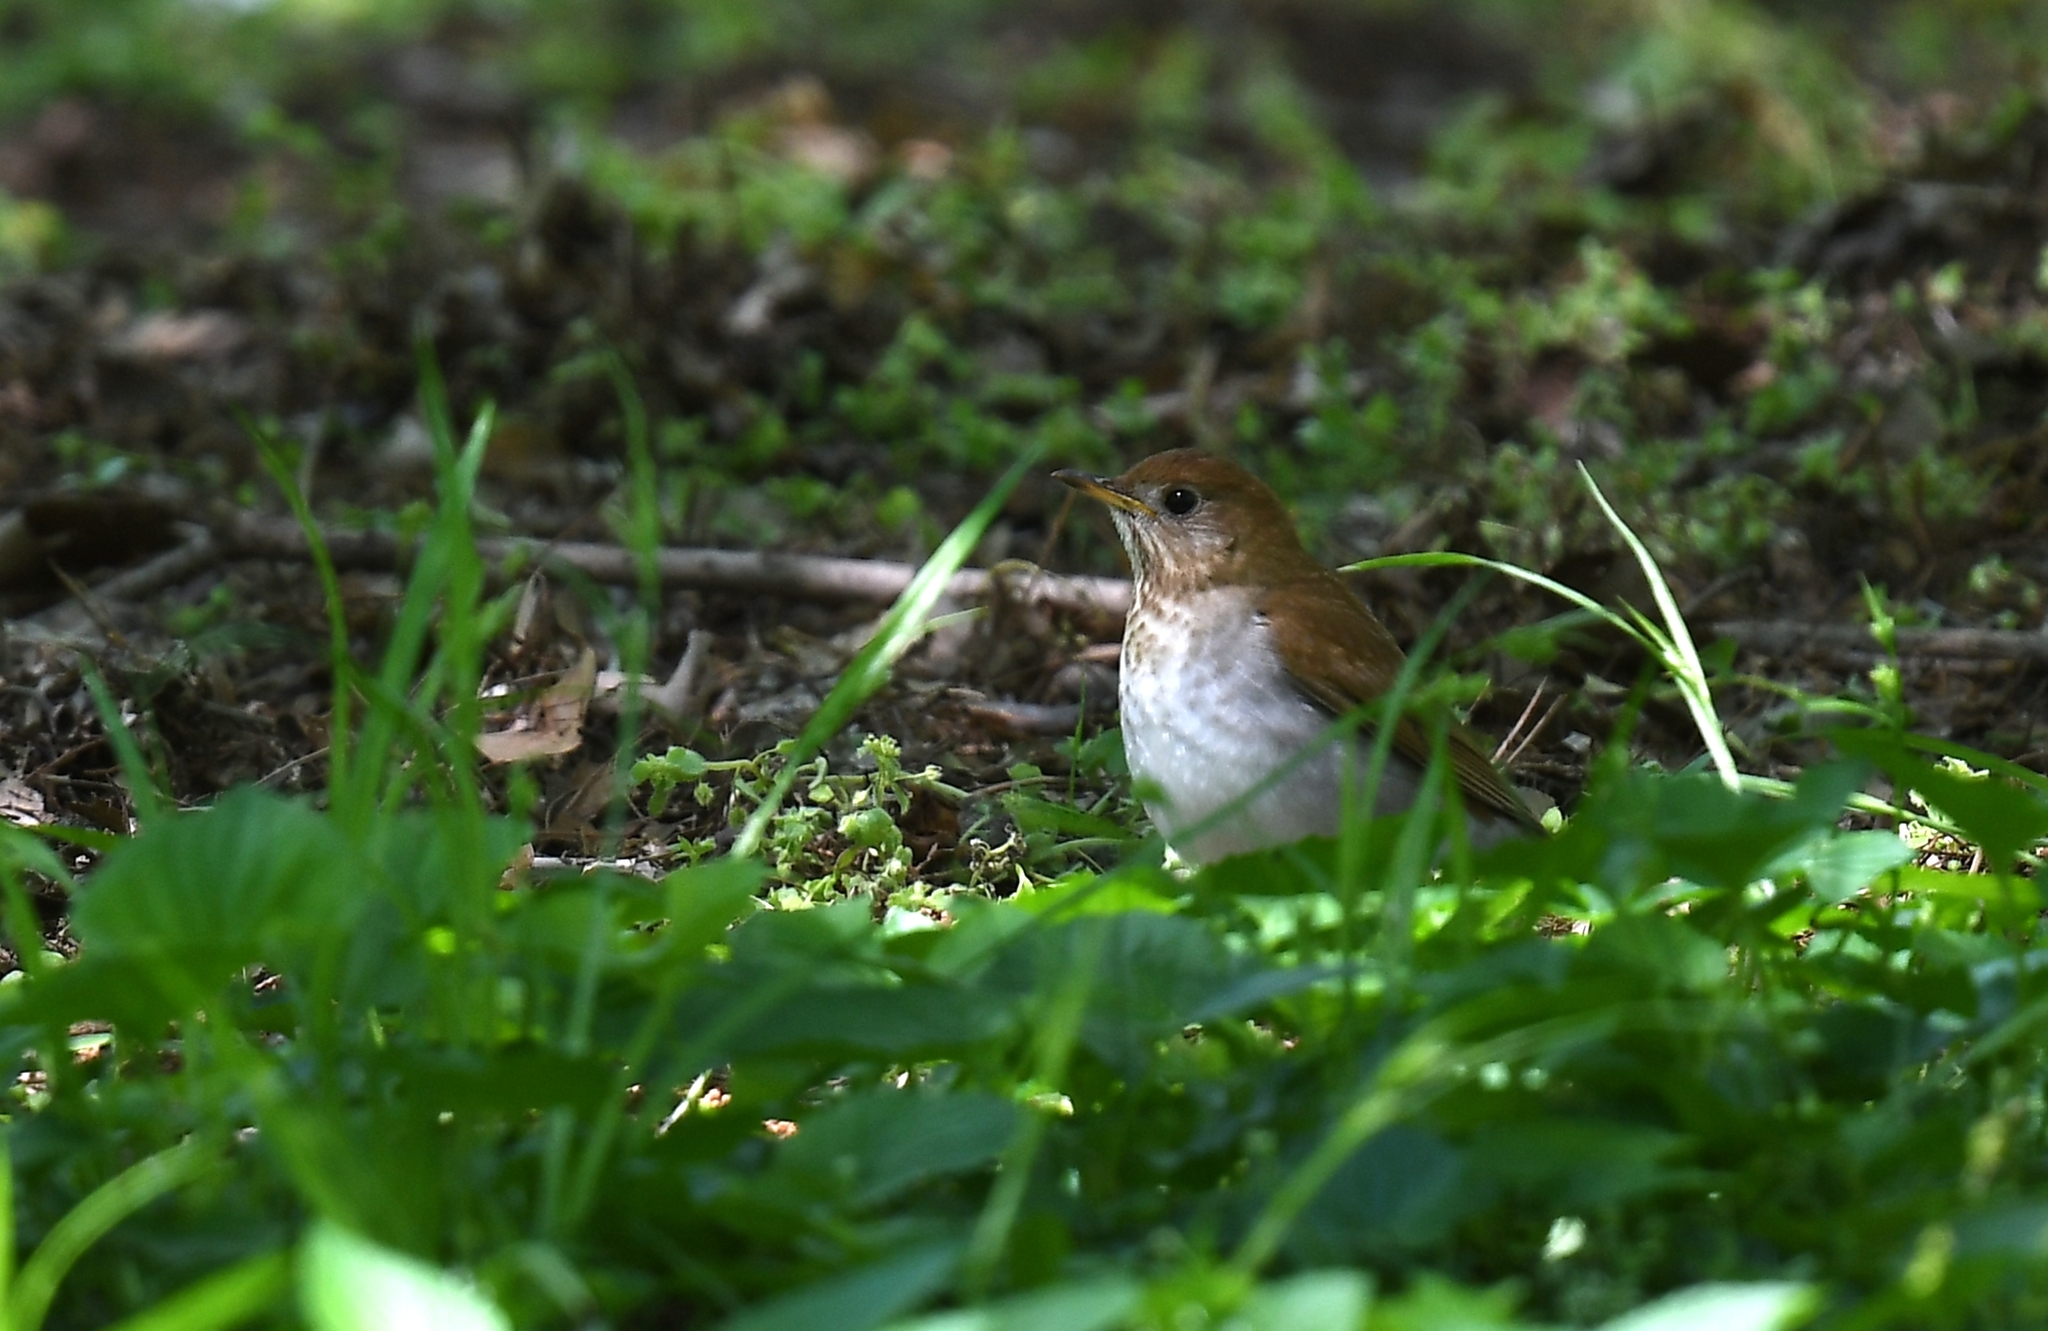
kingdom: Animalia
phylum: Chordata
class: Aves
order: Passeriformes
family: Turdidae
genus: Catharus
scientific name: Catharus fuscescens
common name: Veery
